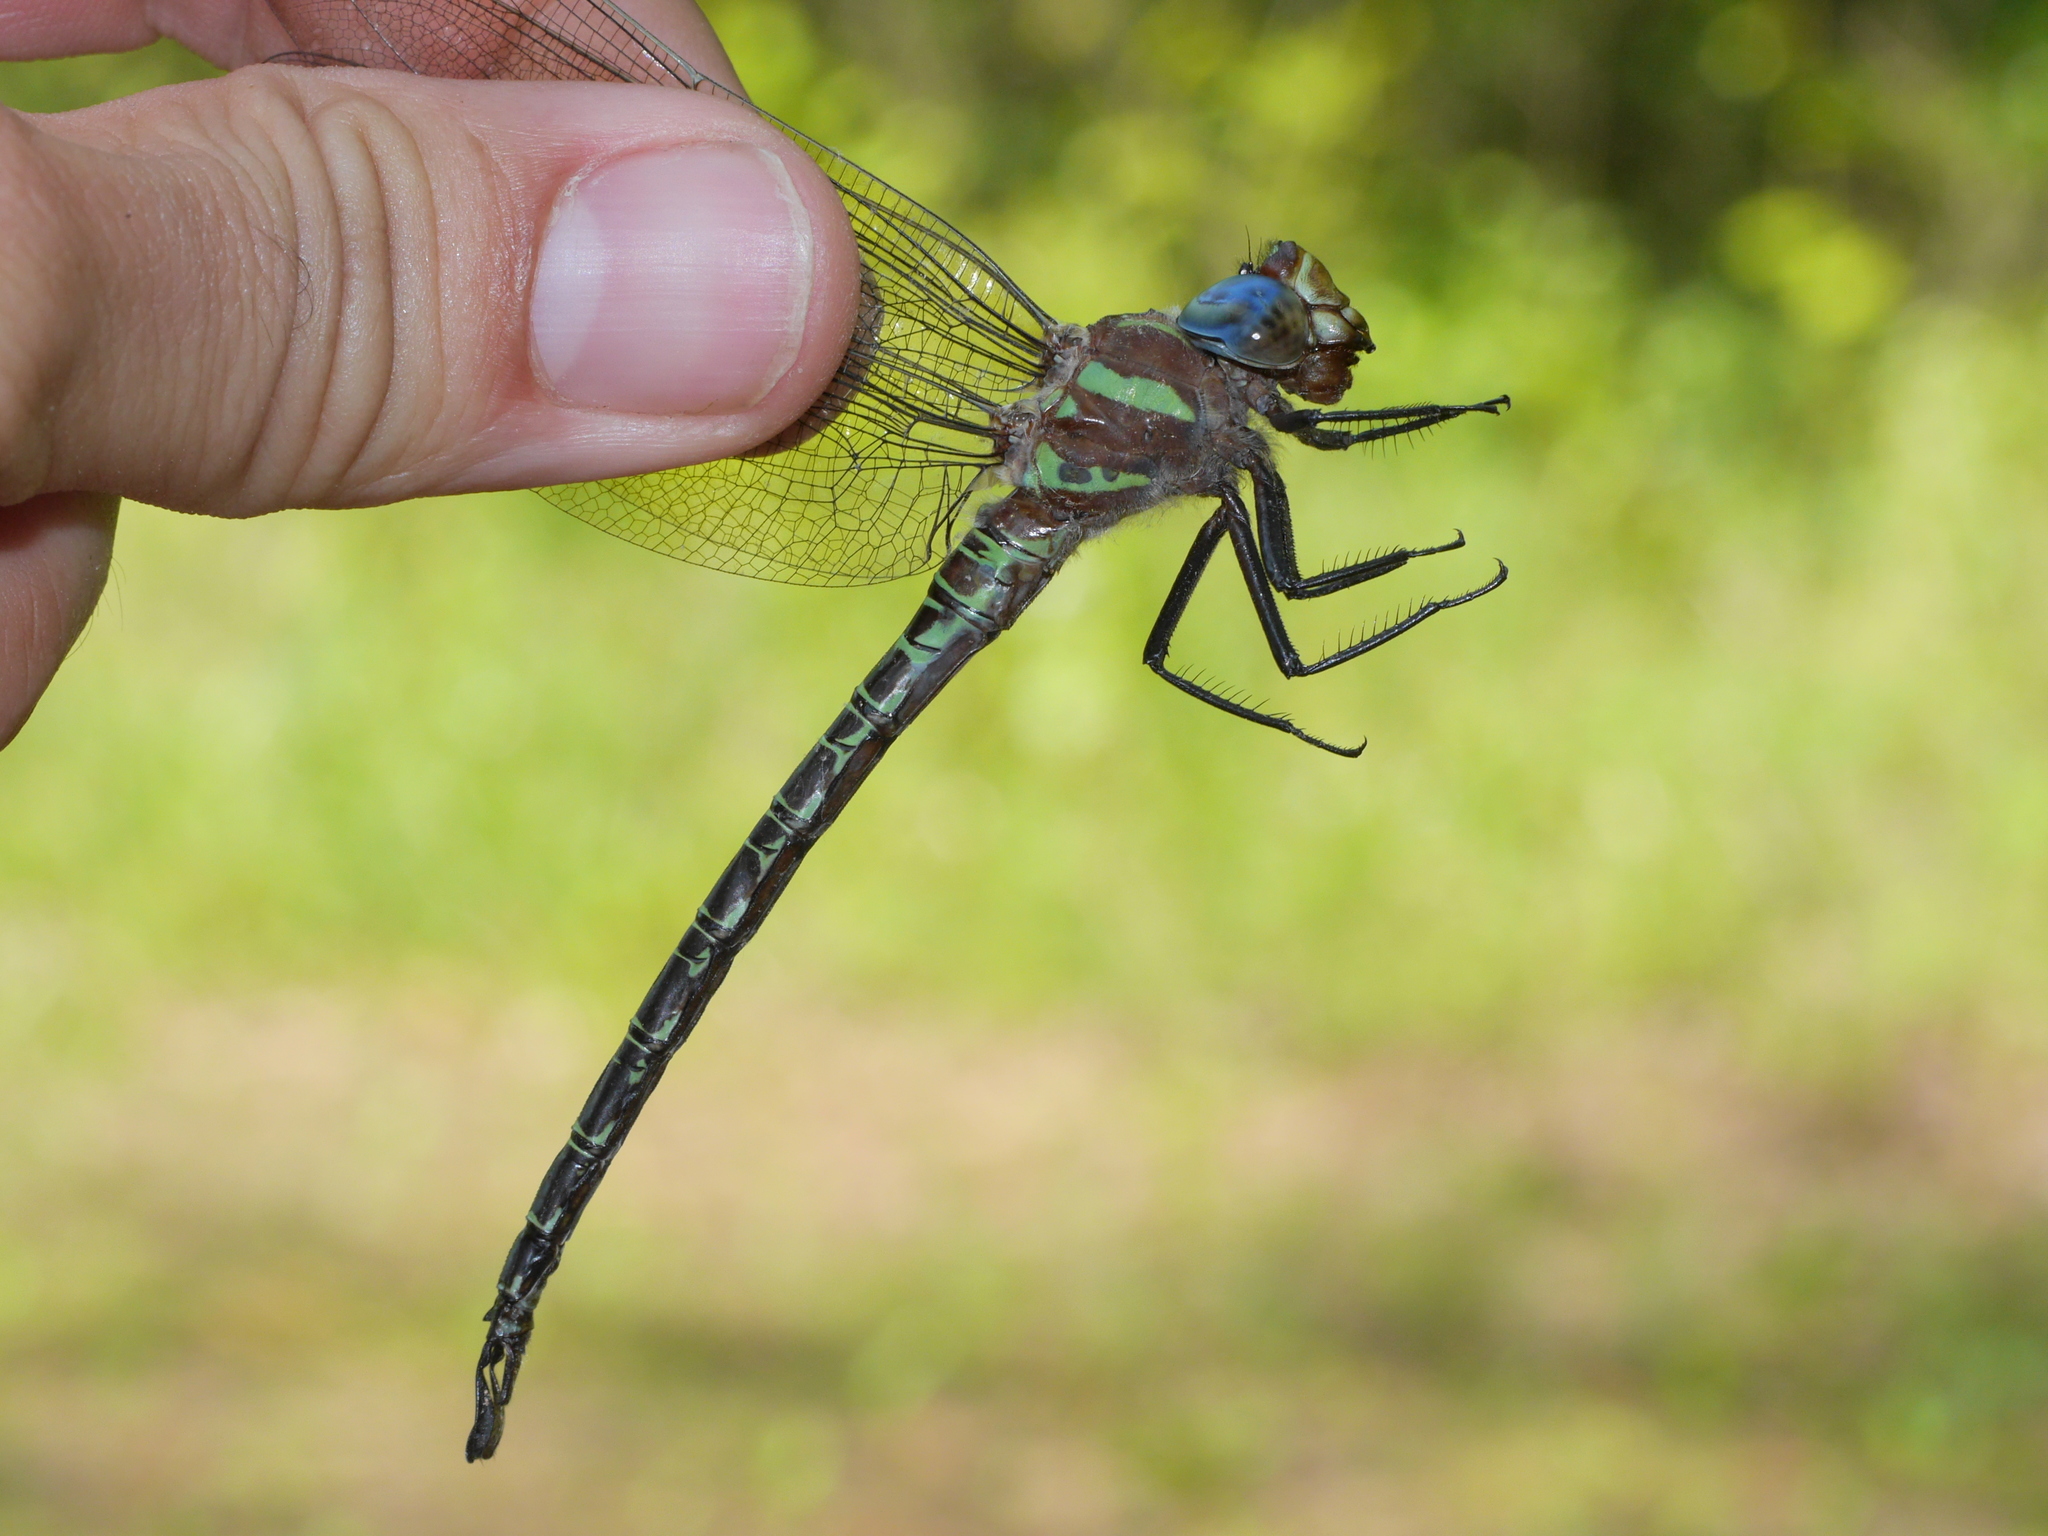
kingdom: Animalia
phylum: Arthropoda
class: Insecta
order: Odonata
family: Aeshnidae
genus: Epiaeschna
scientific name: Epiaeschna heros
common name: Swamp darner
